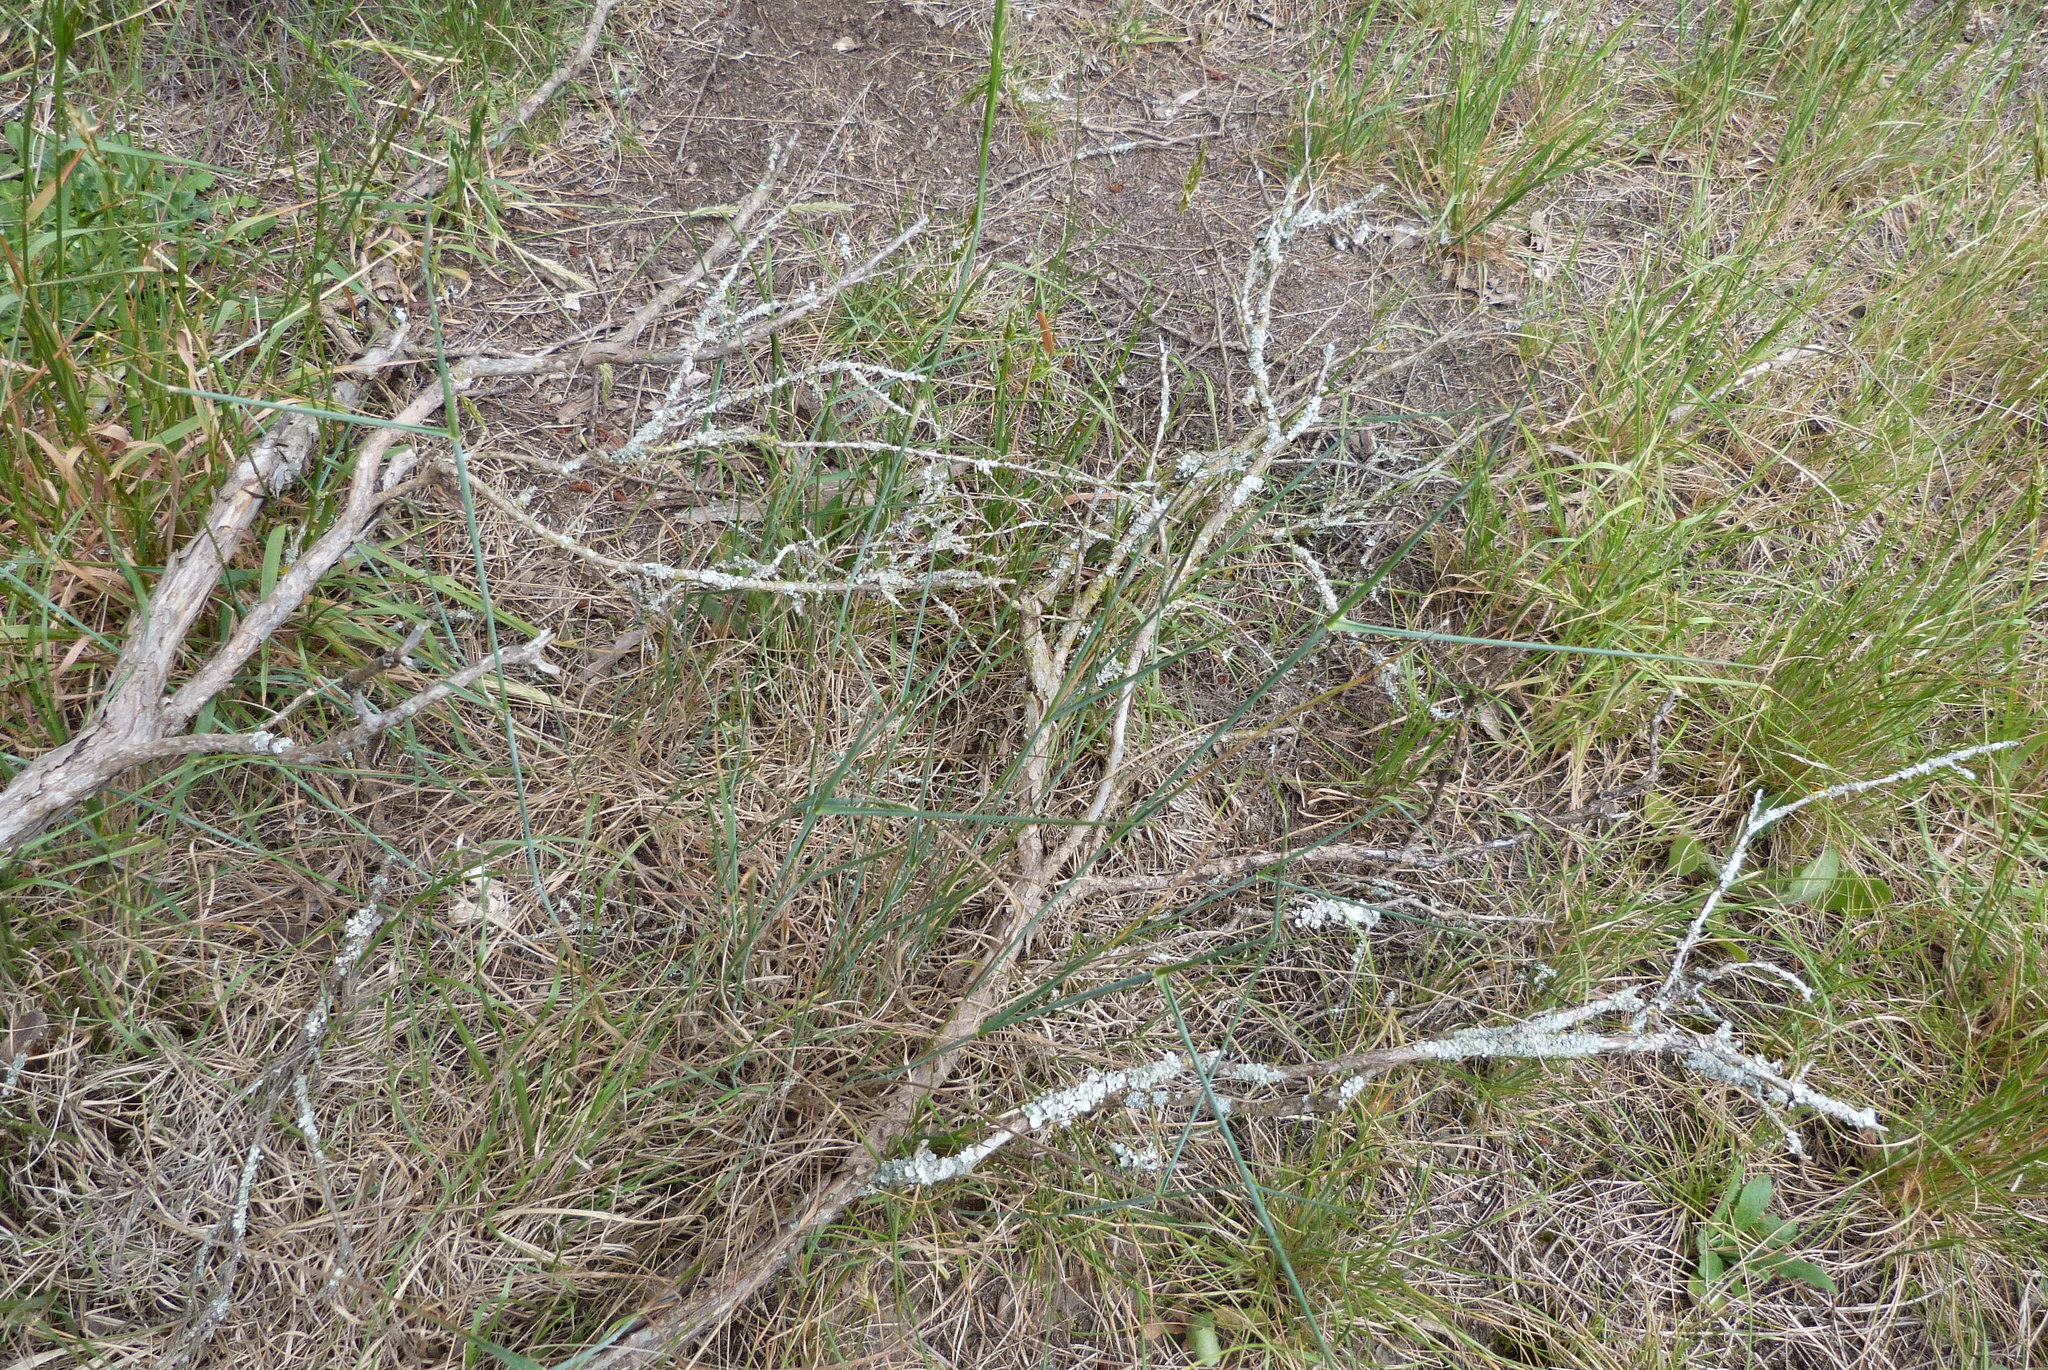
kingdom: Plantae
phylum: Tracheophyta
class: Liliopsida
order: Poales
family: Poaceae
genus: Anthosachne
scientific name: Anthosachne solandri
